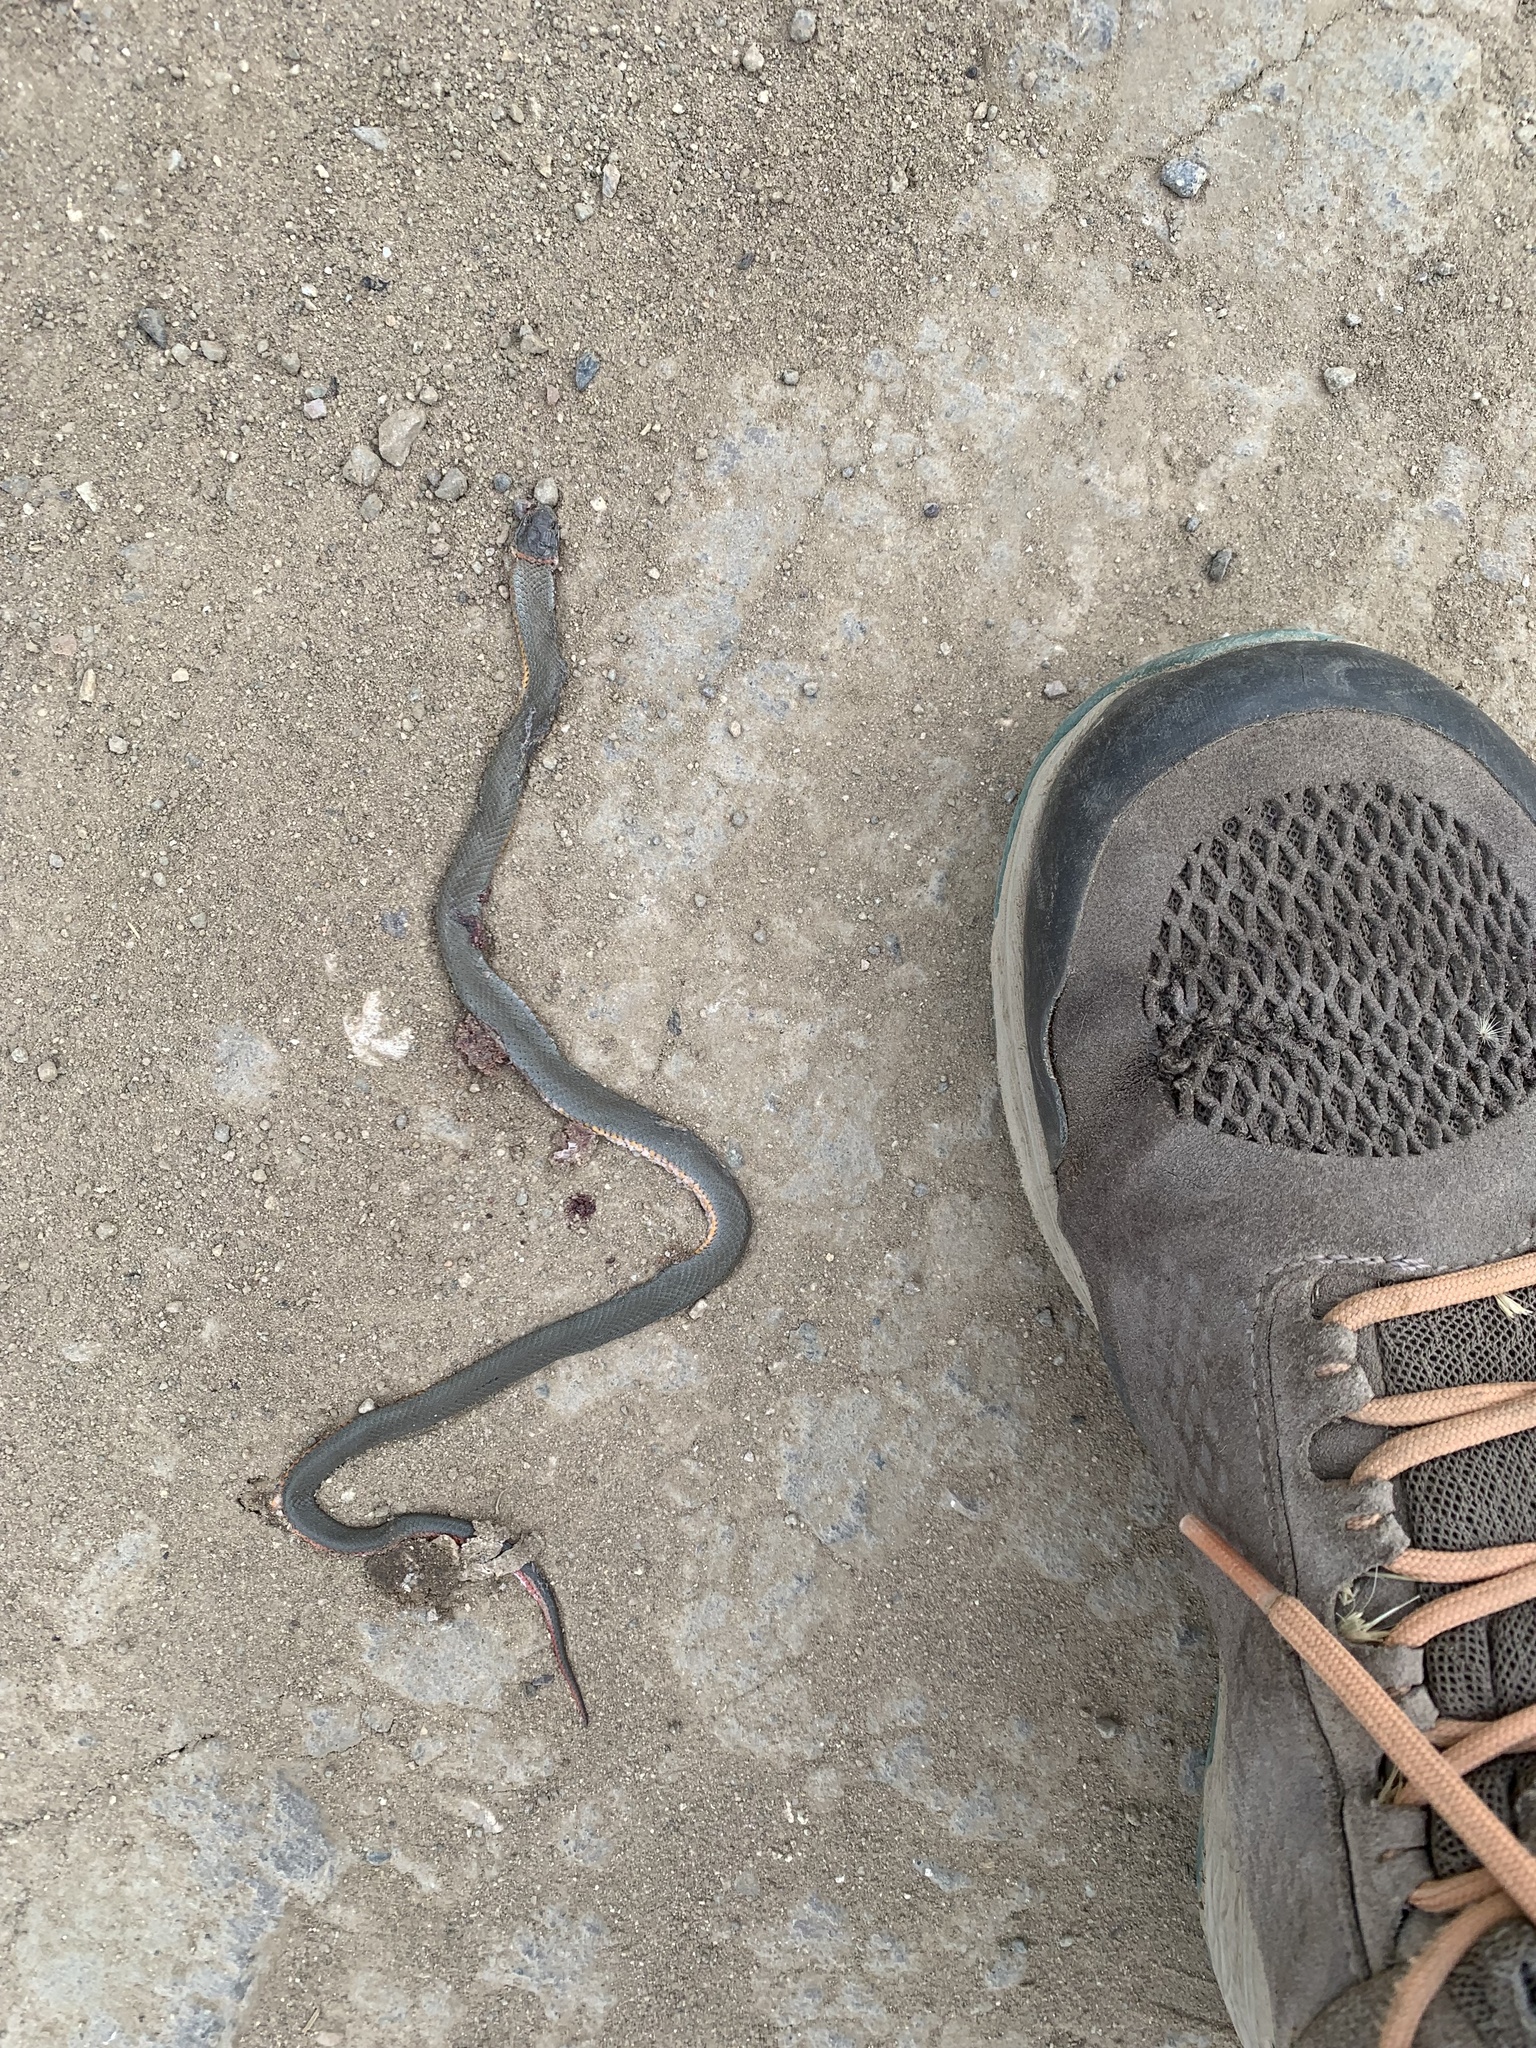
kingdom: Animalia
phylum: Chordata
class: Squamata
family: Colubridae
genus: Diadophis
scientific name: Diadophis punctatus
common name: Ringneck snake
